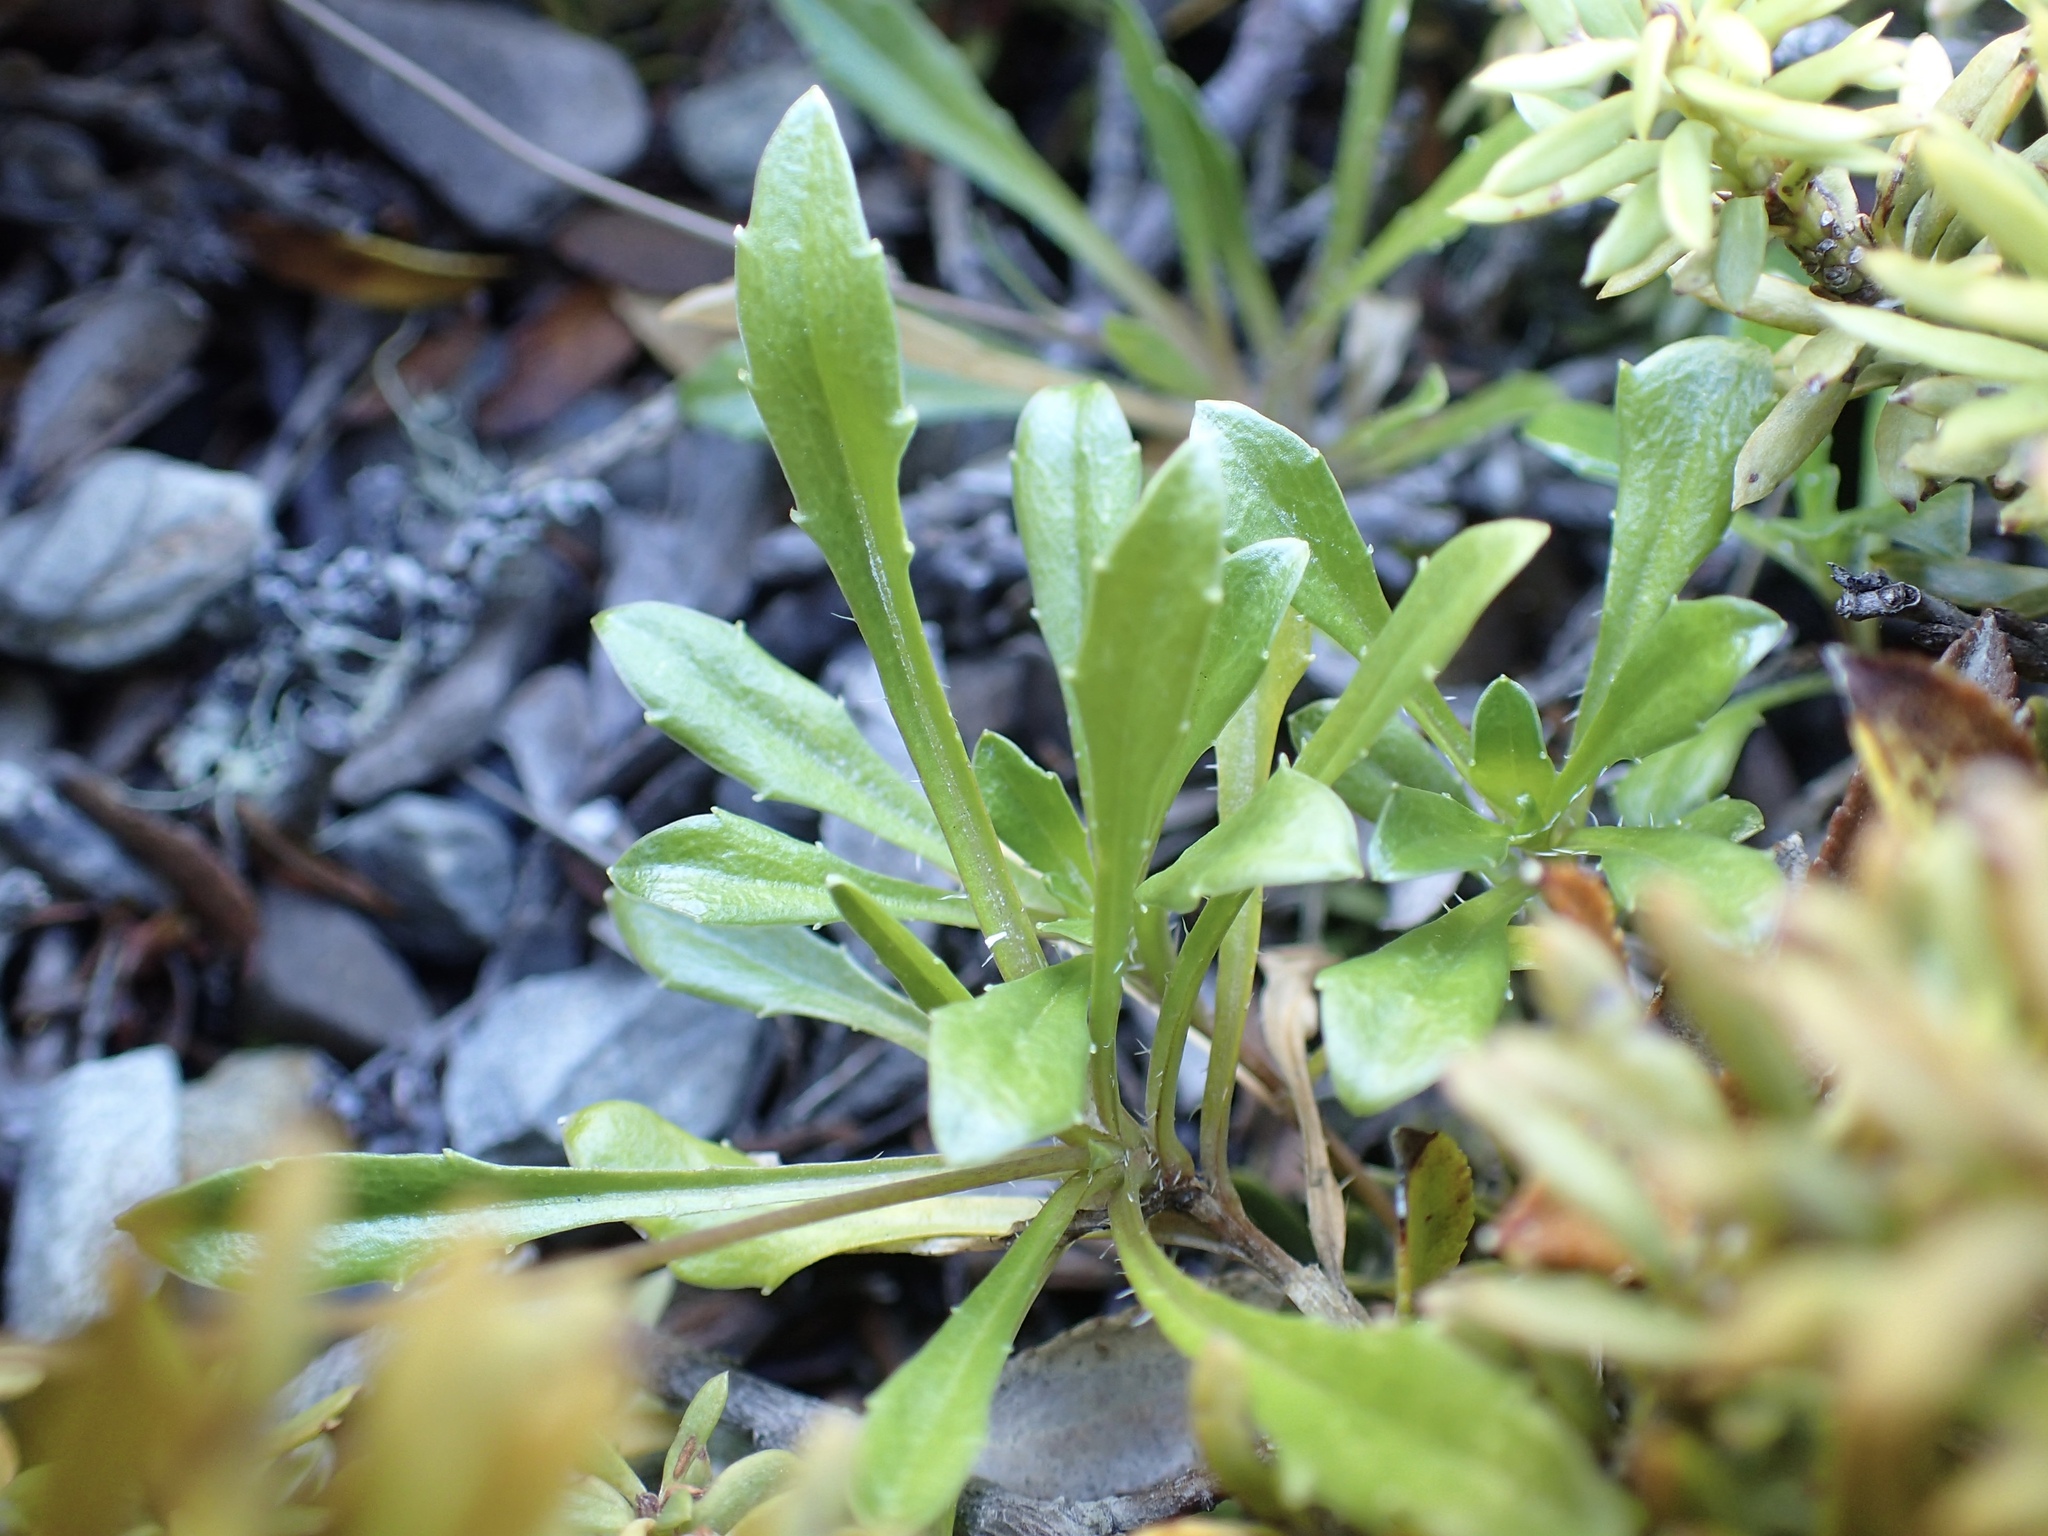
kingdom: Plantae
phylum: Tracheophyta
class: Magnoliopsida
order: Asterales
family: Campanulaceae
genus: Wahlenbergia
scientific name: Wahlenbergia albomarginata
